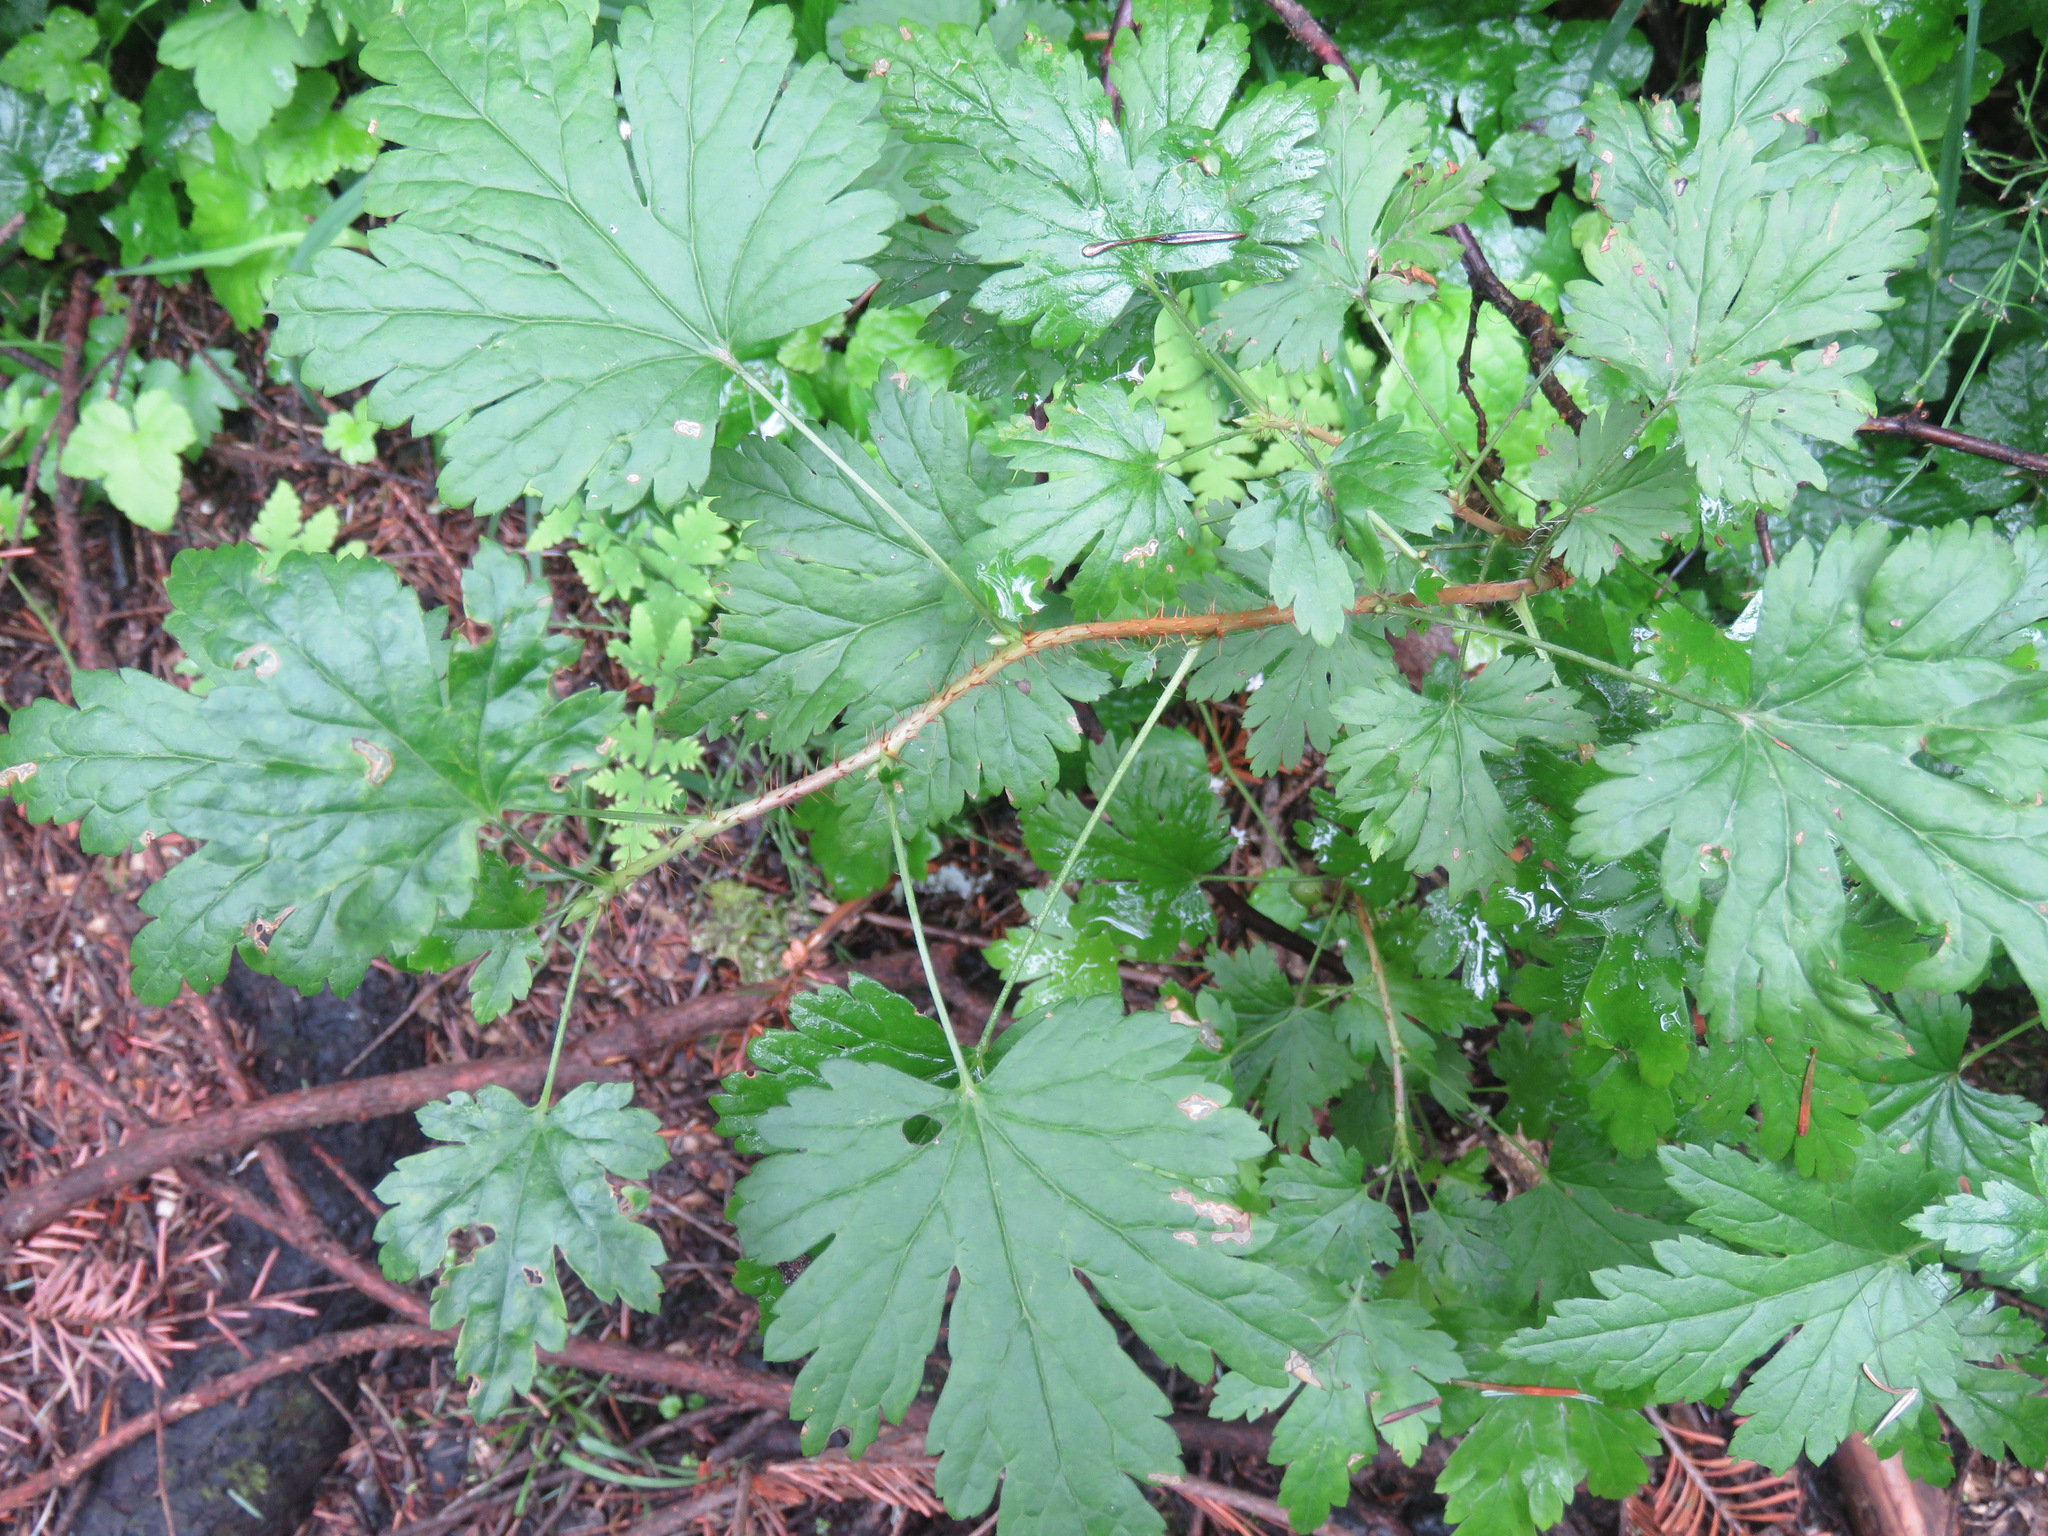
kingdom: Plantae
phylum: Tracheophyta
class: Magnoliopsida
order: Saxifragales
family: Grossulariaceae
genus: Ribes
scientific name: Ribes lacustre
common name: Black gooseberry
